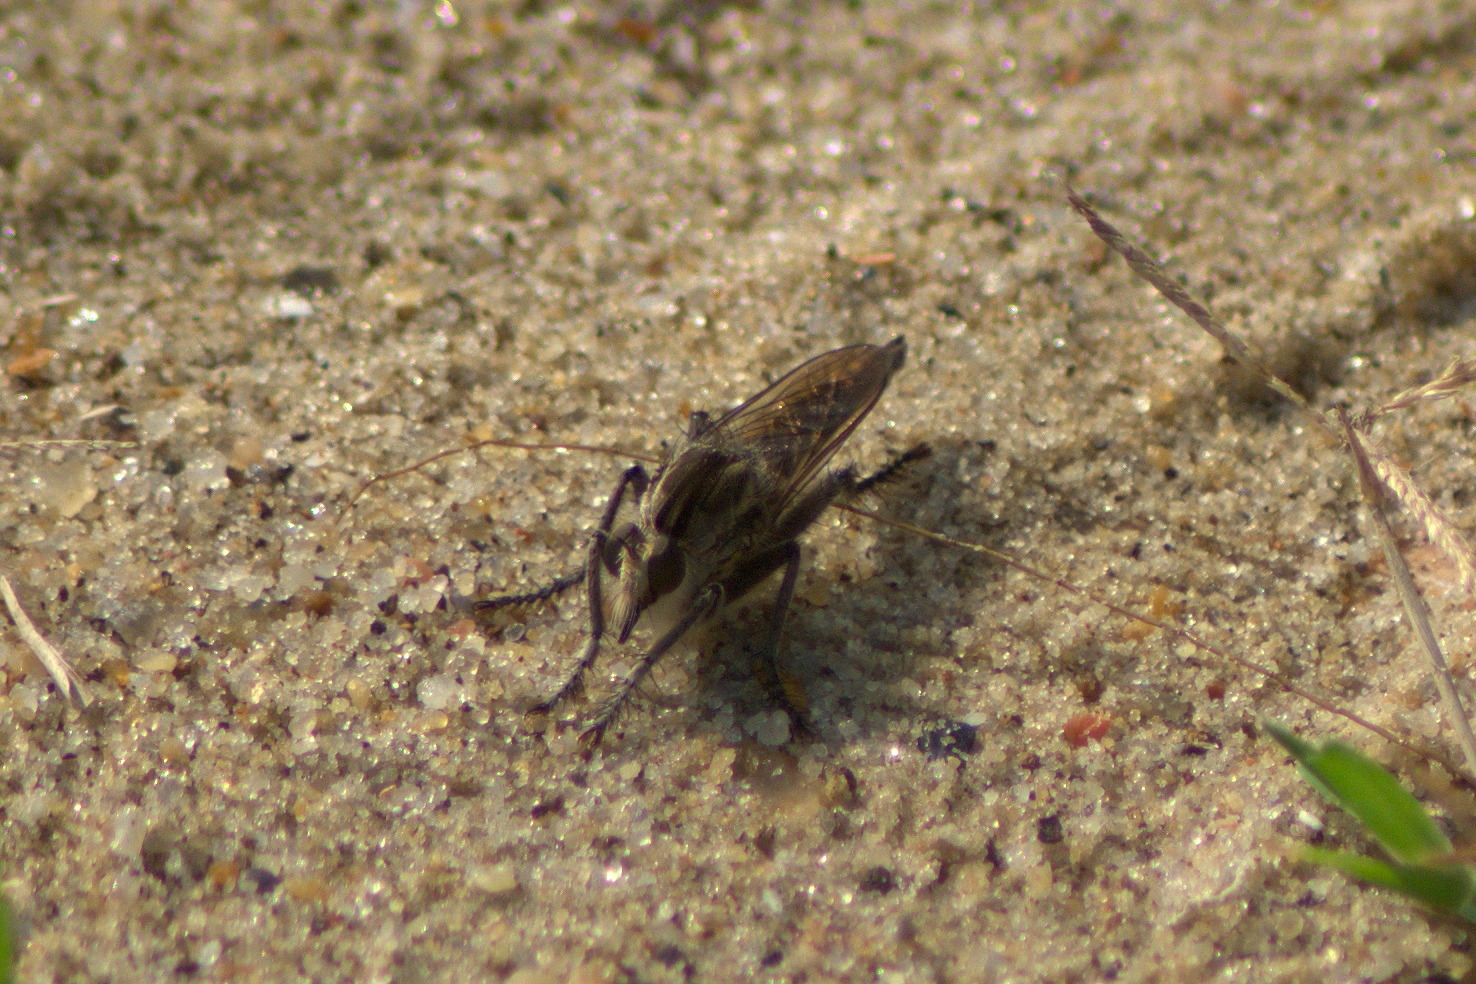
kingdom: Animalia
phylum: Arthropoda
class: Insecta
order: Diptera
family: Asilidae
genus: Triorla
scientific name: Triorla interrupta
